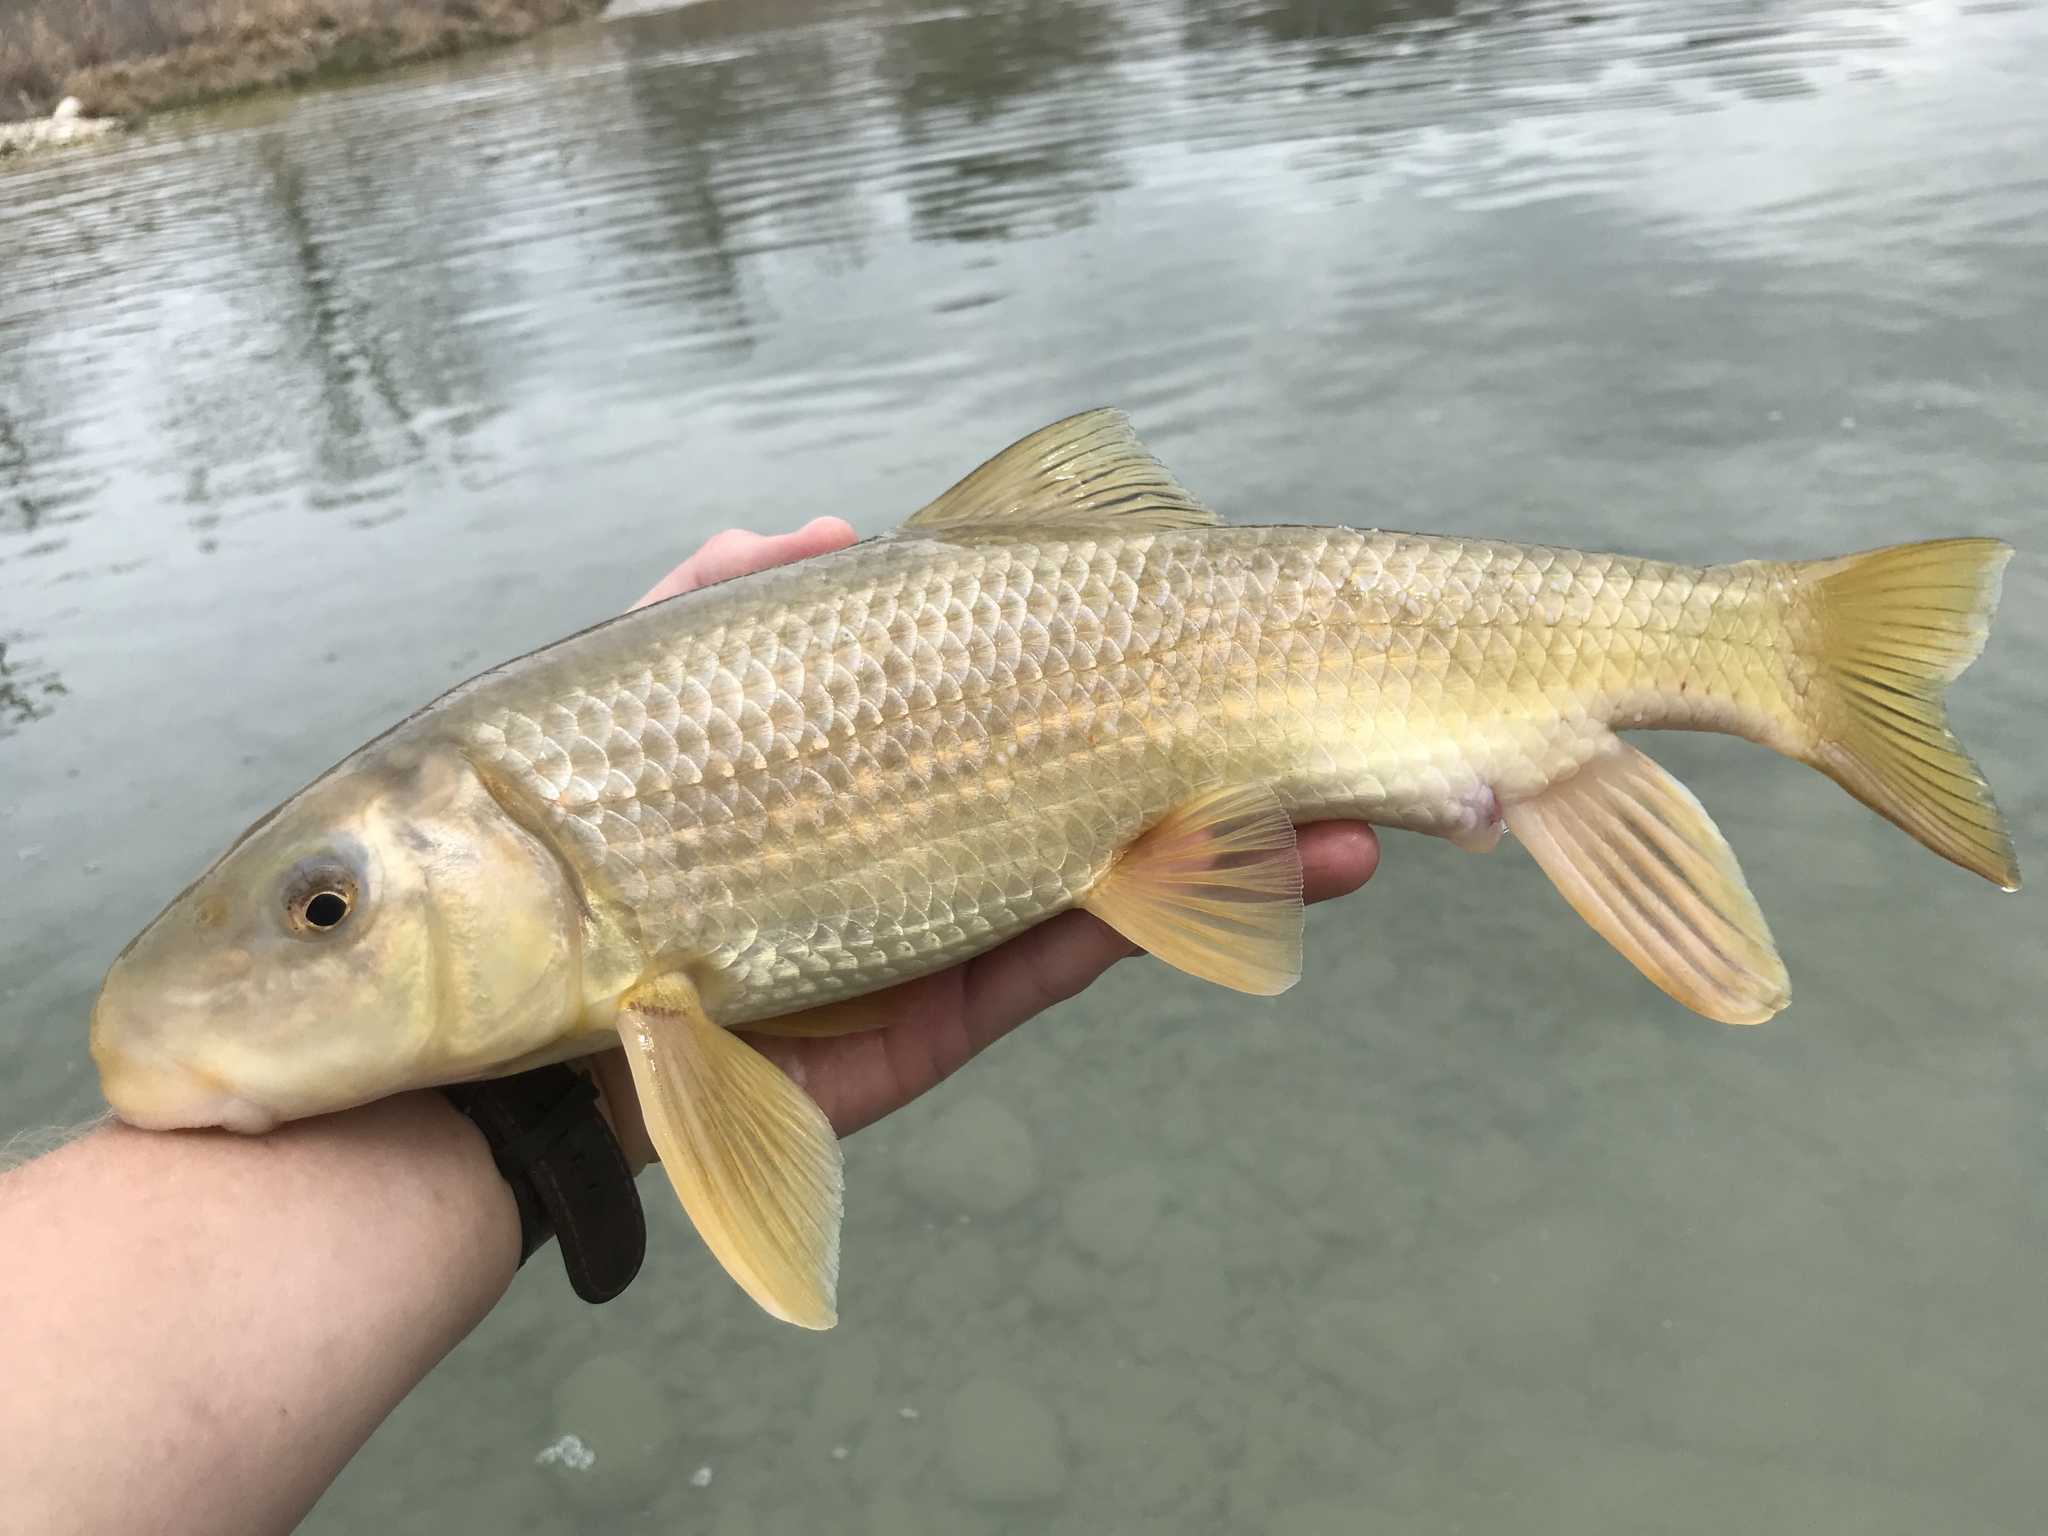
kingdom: Animalia
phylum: Chordata
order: Cypriniformes
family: Catostomidae
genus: Moxostoma
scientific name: Moxostoma congestum
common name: Gray redhorse
